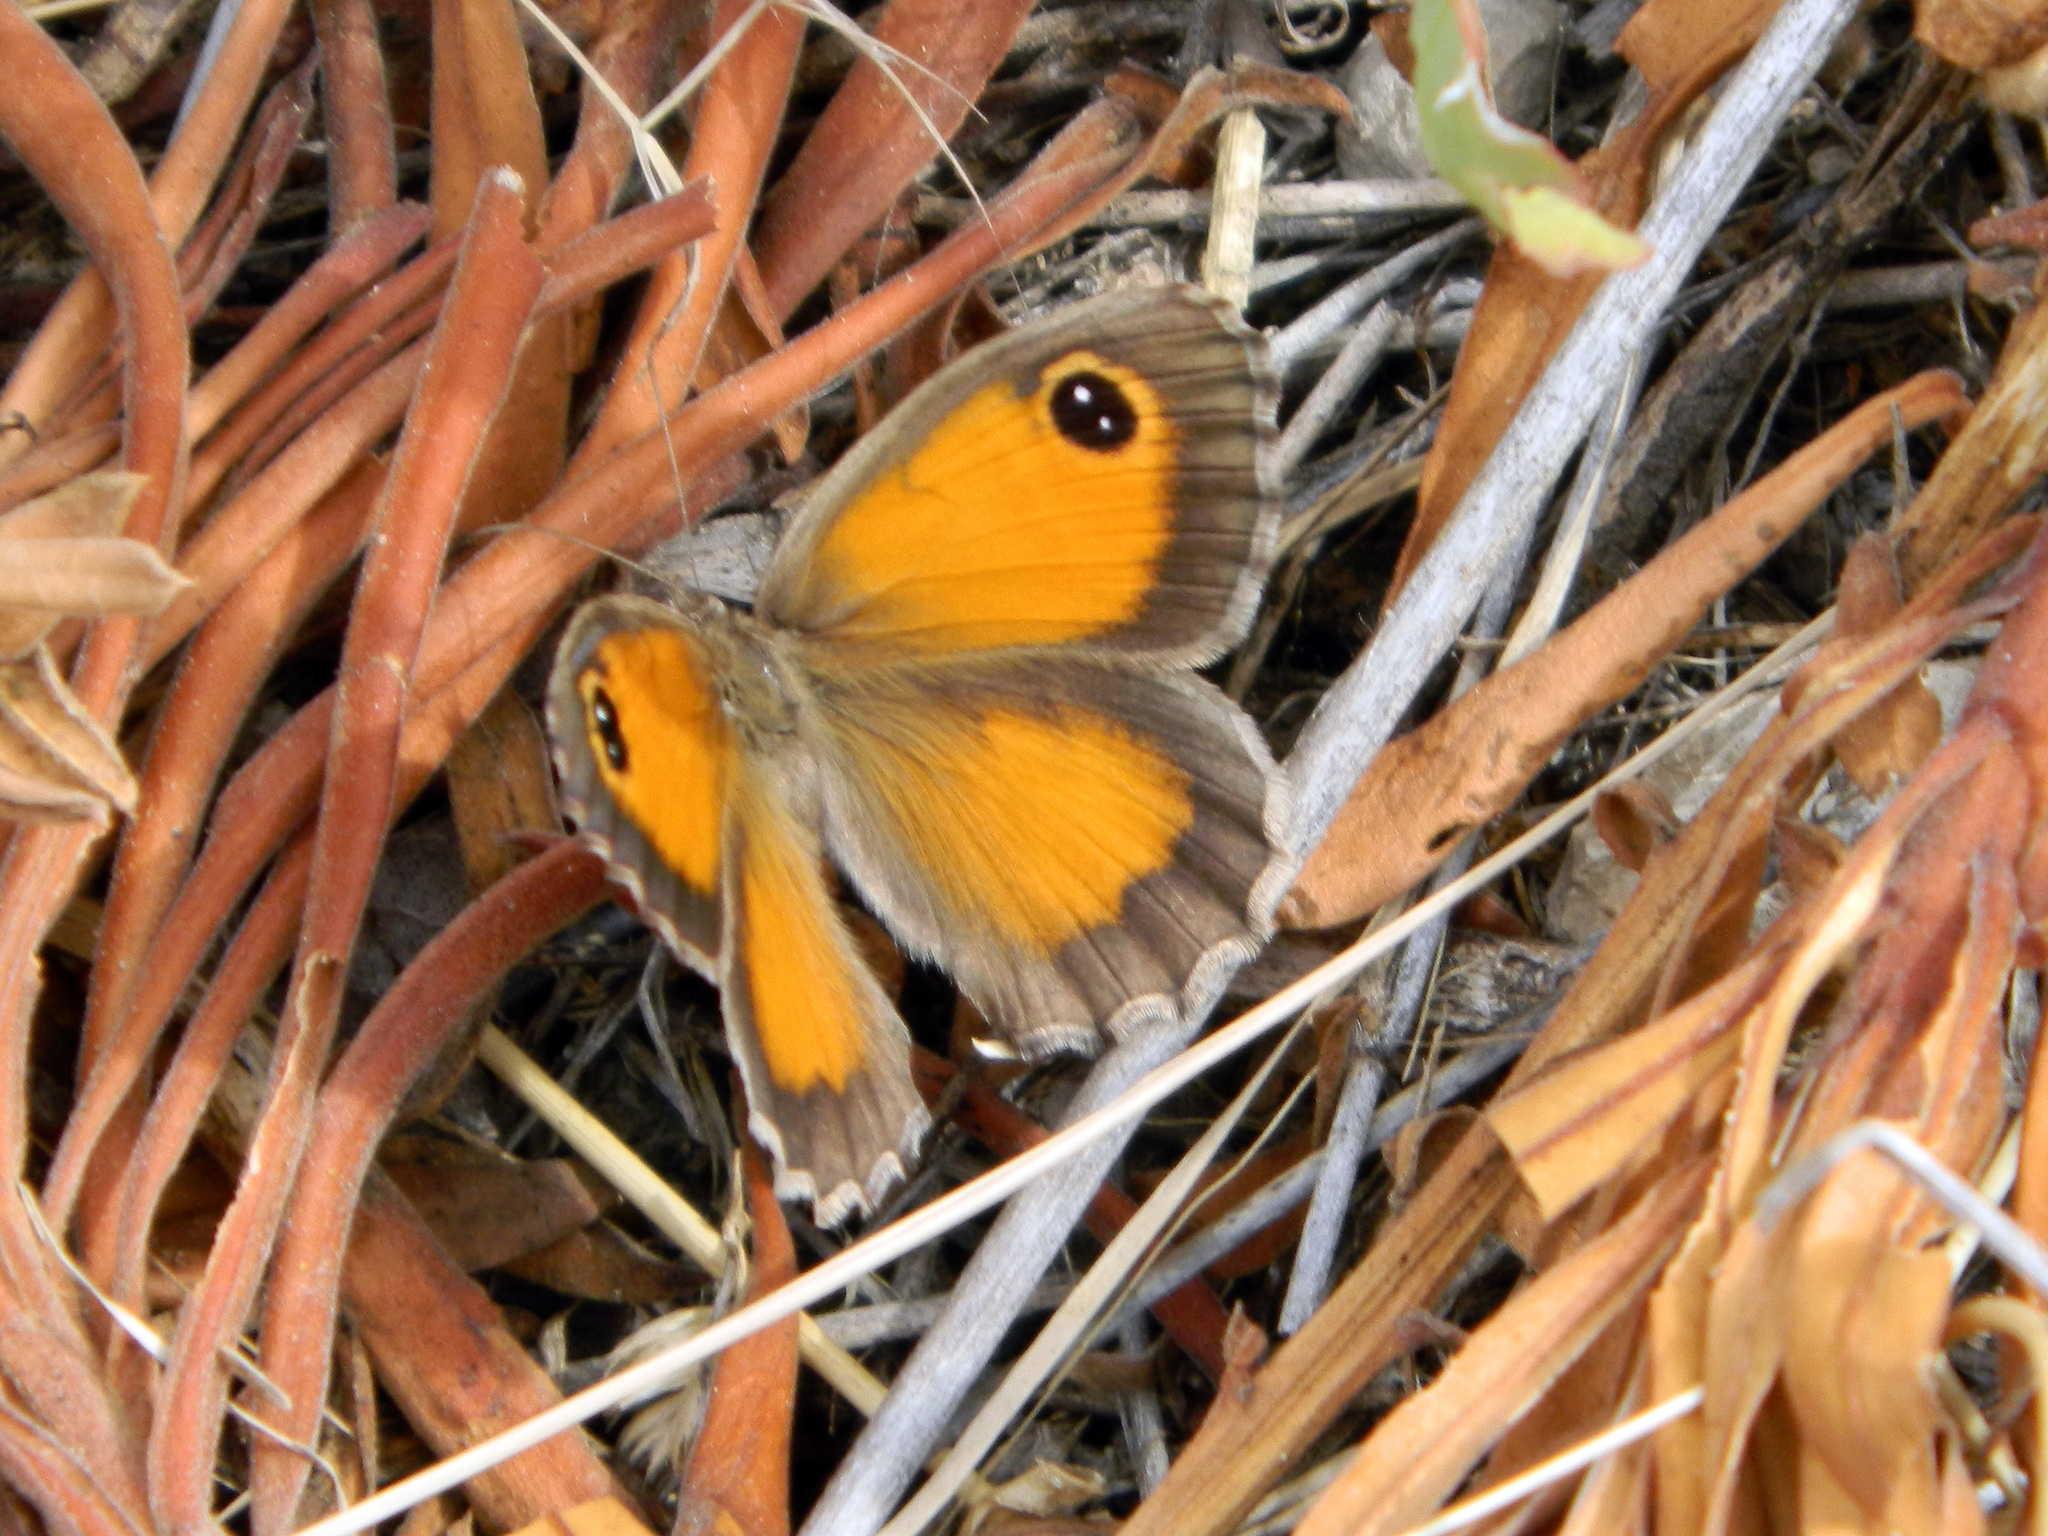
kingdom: Animalia
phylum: Arthropoda
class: Insecta
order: Lepidoptera
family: Nymphalidae
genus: Pyronia
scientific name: Pyronia cecilia
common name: Southern gatekeeper
